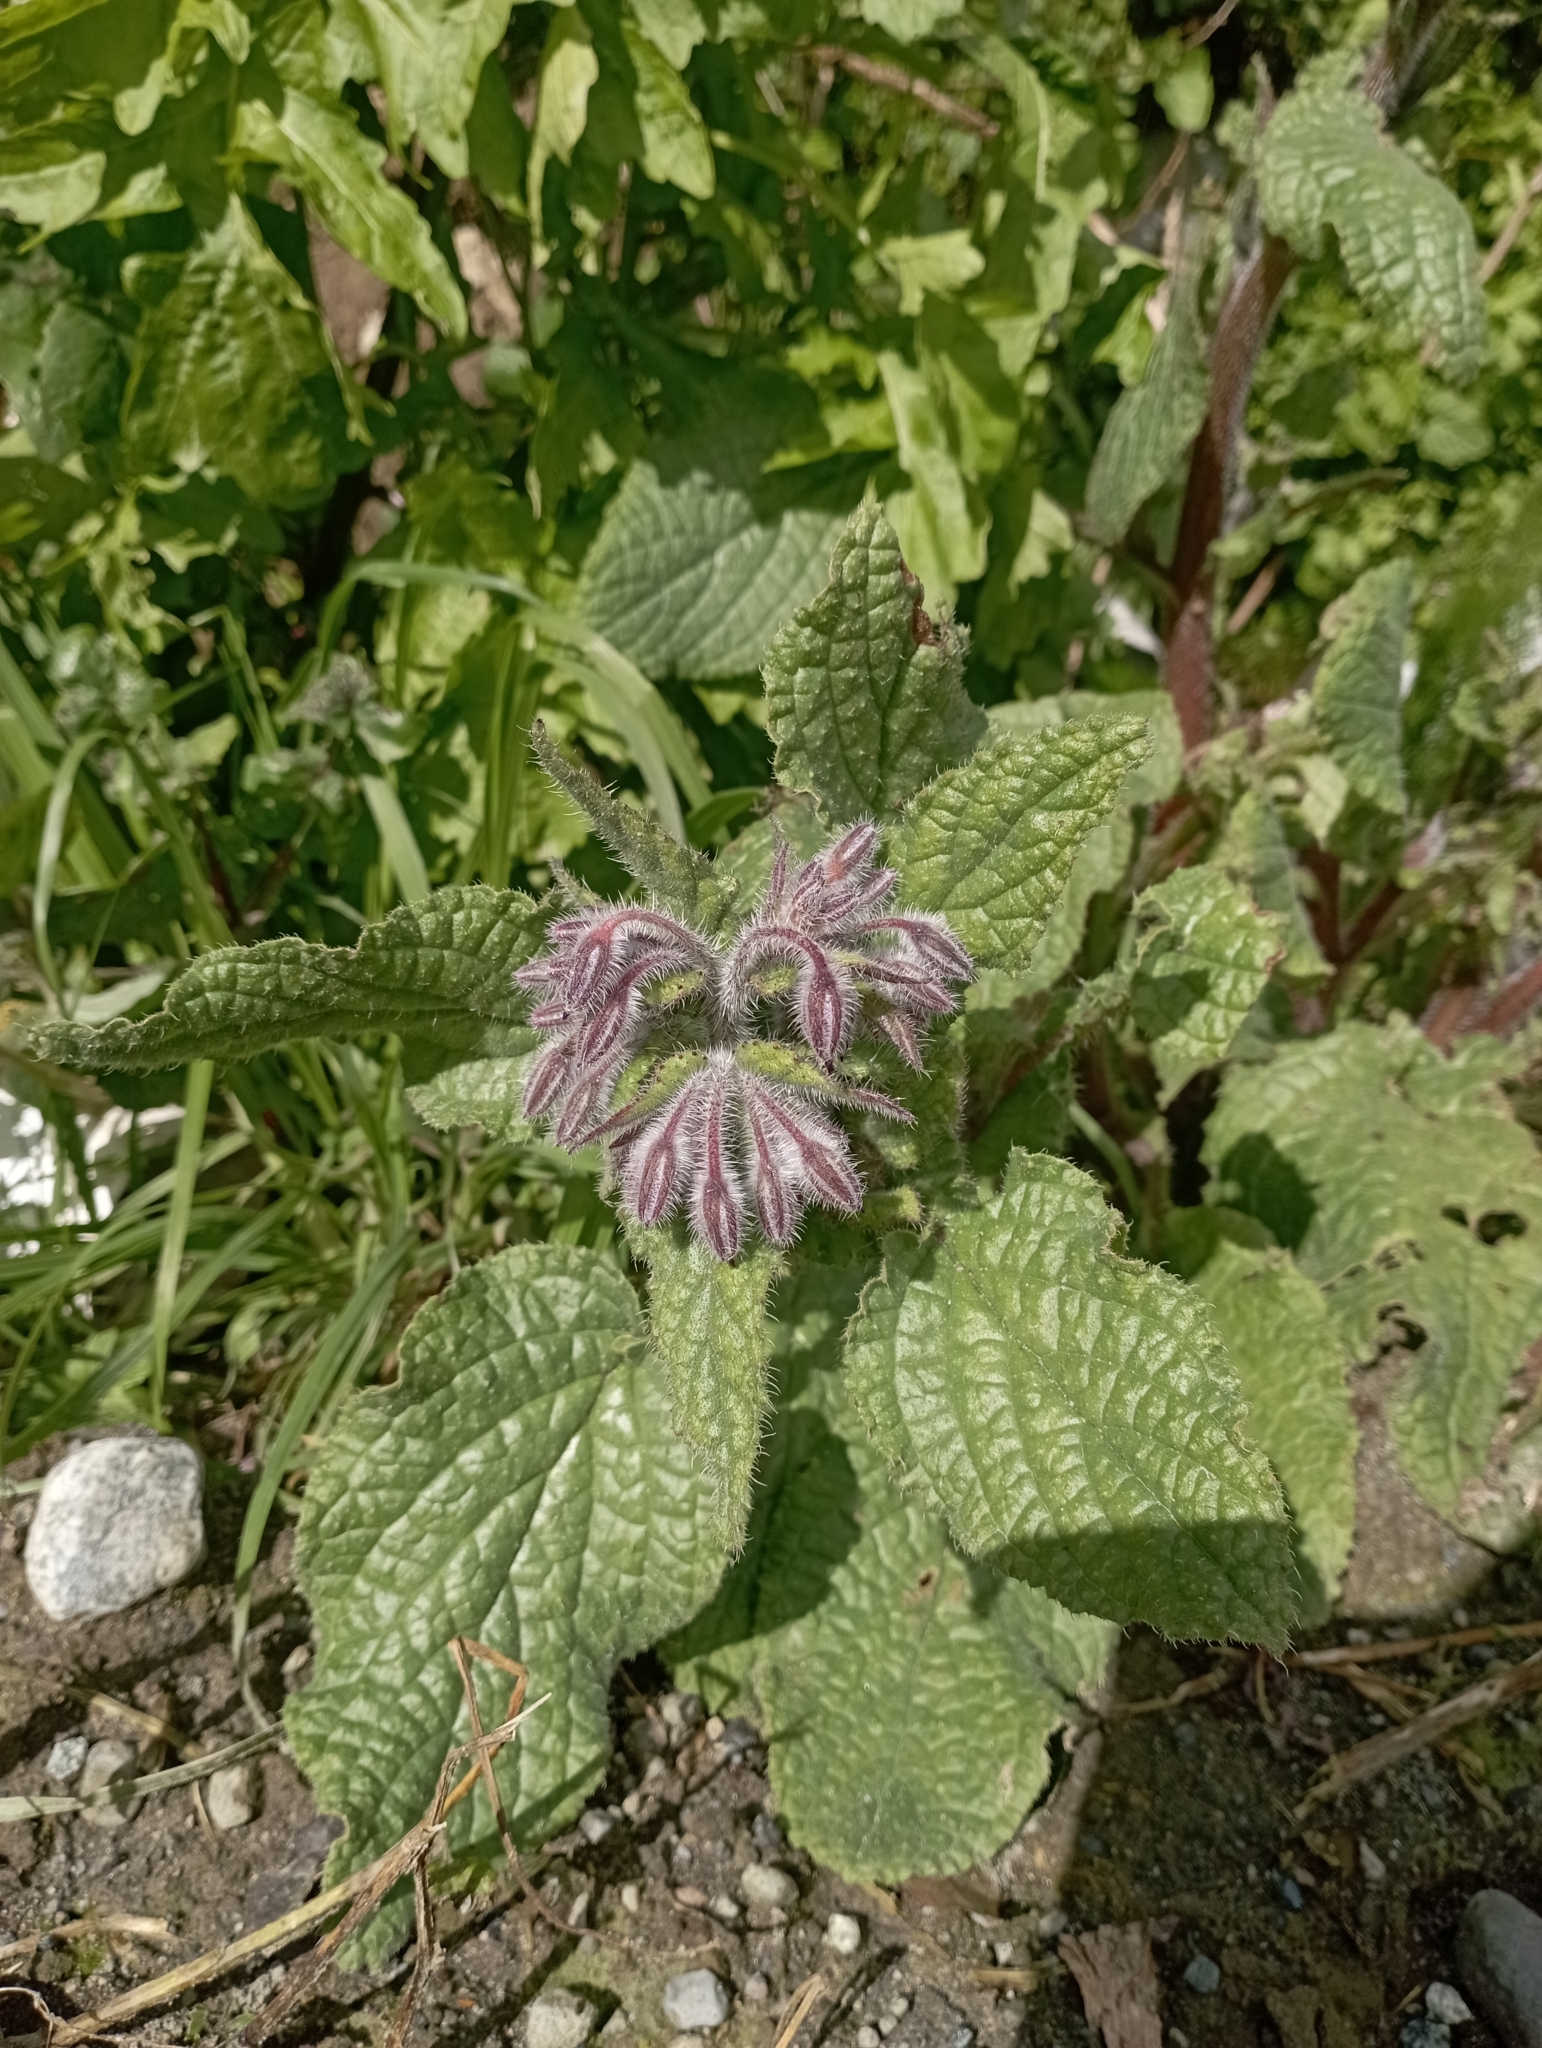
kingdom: Plantae
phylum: Tracheophyta
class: Magnoliopsida
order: Boraginales
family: Boraginaceae
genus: Borago
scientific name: Borago officinalis
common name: Borage
